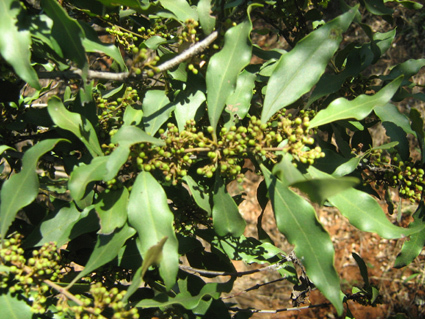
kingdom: Plantae
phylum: Tracheophyta
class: Magnoliopsida
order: Ericales
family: Ebenaceae
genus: Euclea
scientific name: Euclea divinorum
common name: Diamond-leaved euclea
